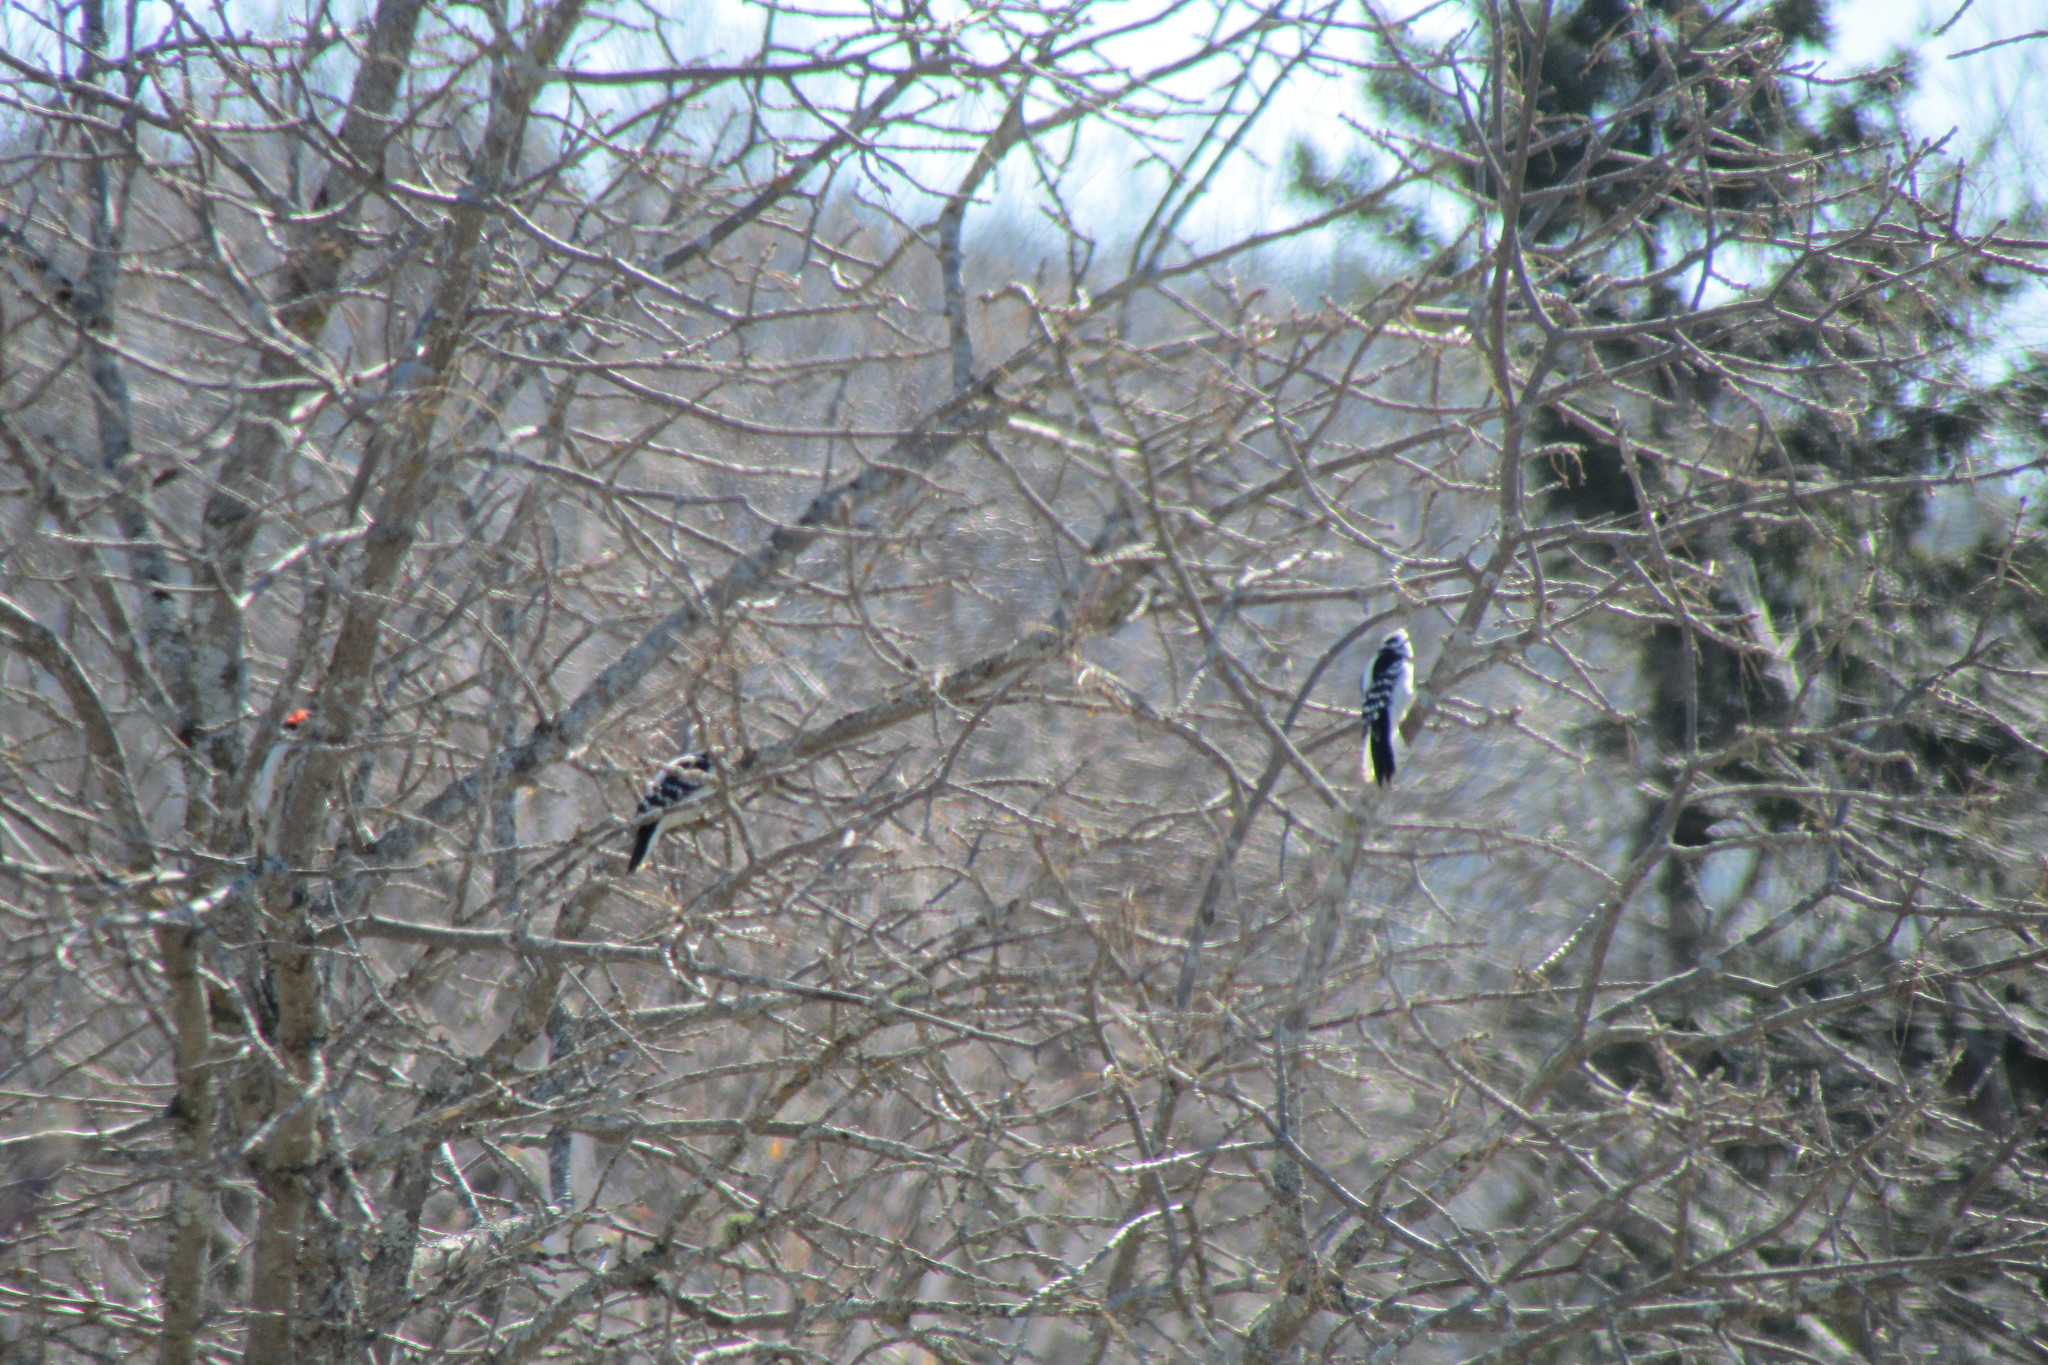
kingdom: Animalia
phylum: Chordata
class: Aves
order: Piciformes
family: Picidae
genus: Dryobates
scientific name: Dryobates pubescens
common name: Downy woodpecker
